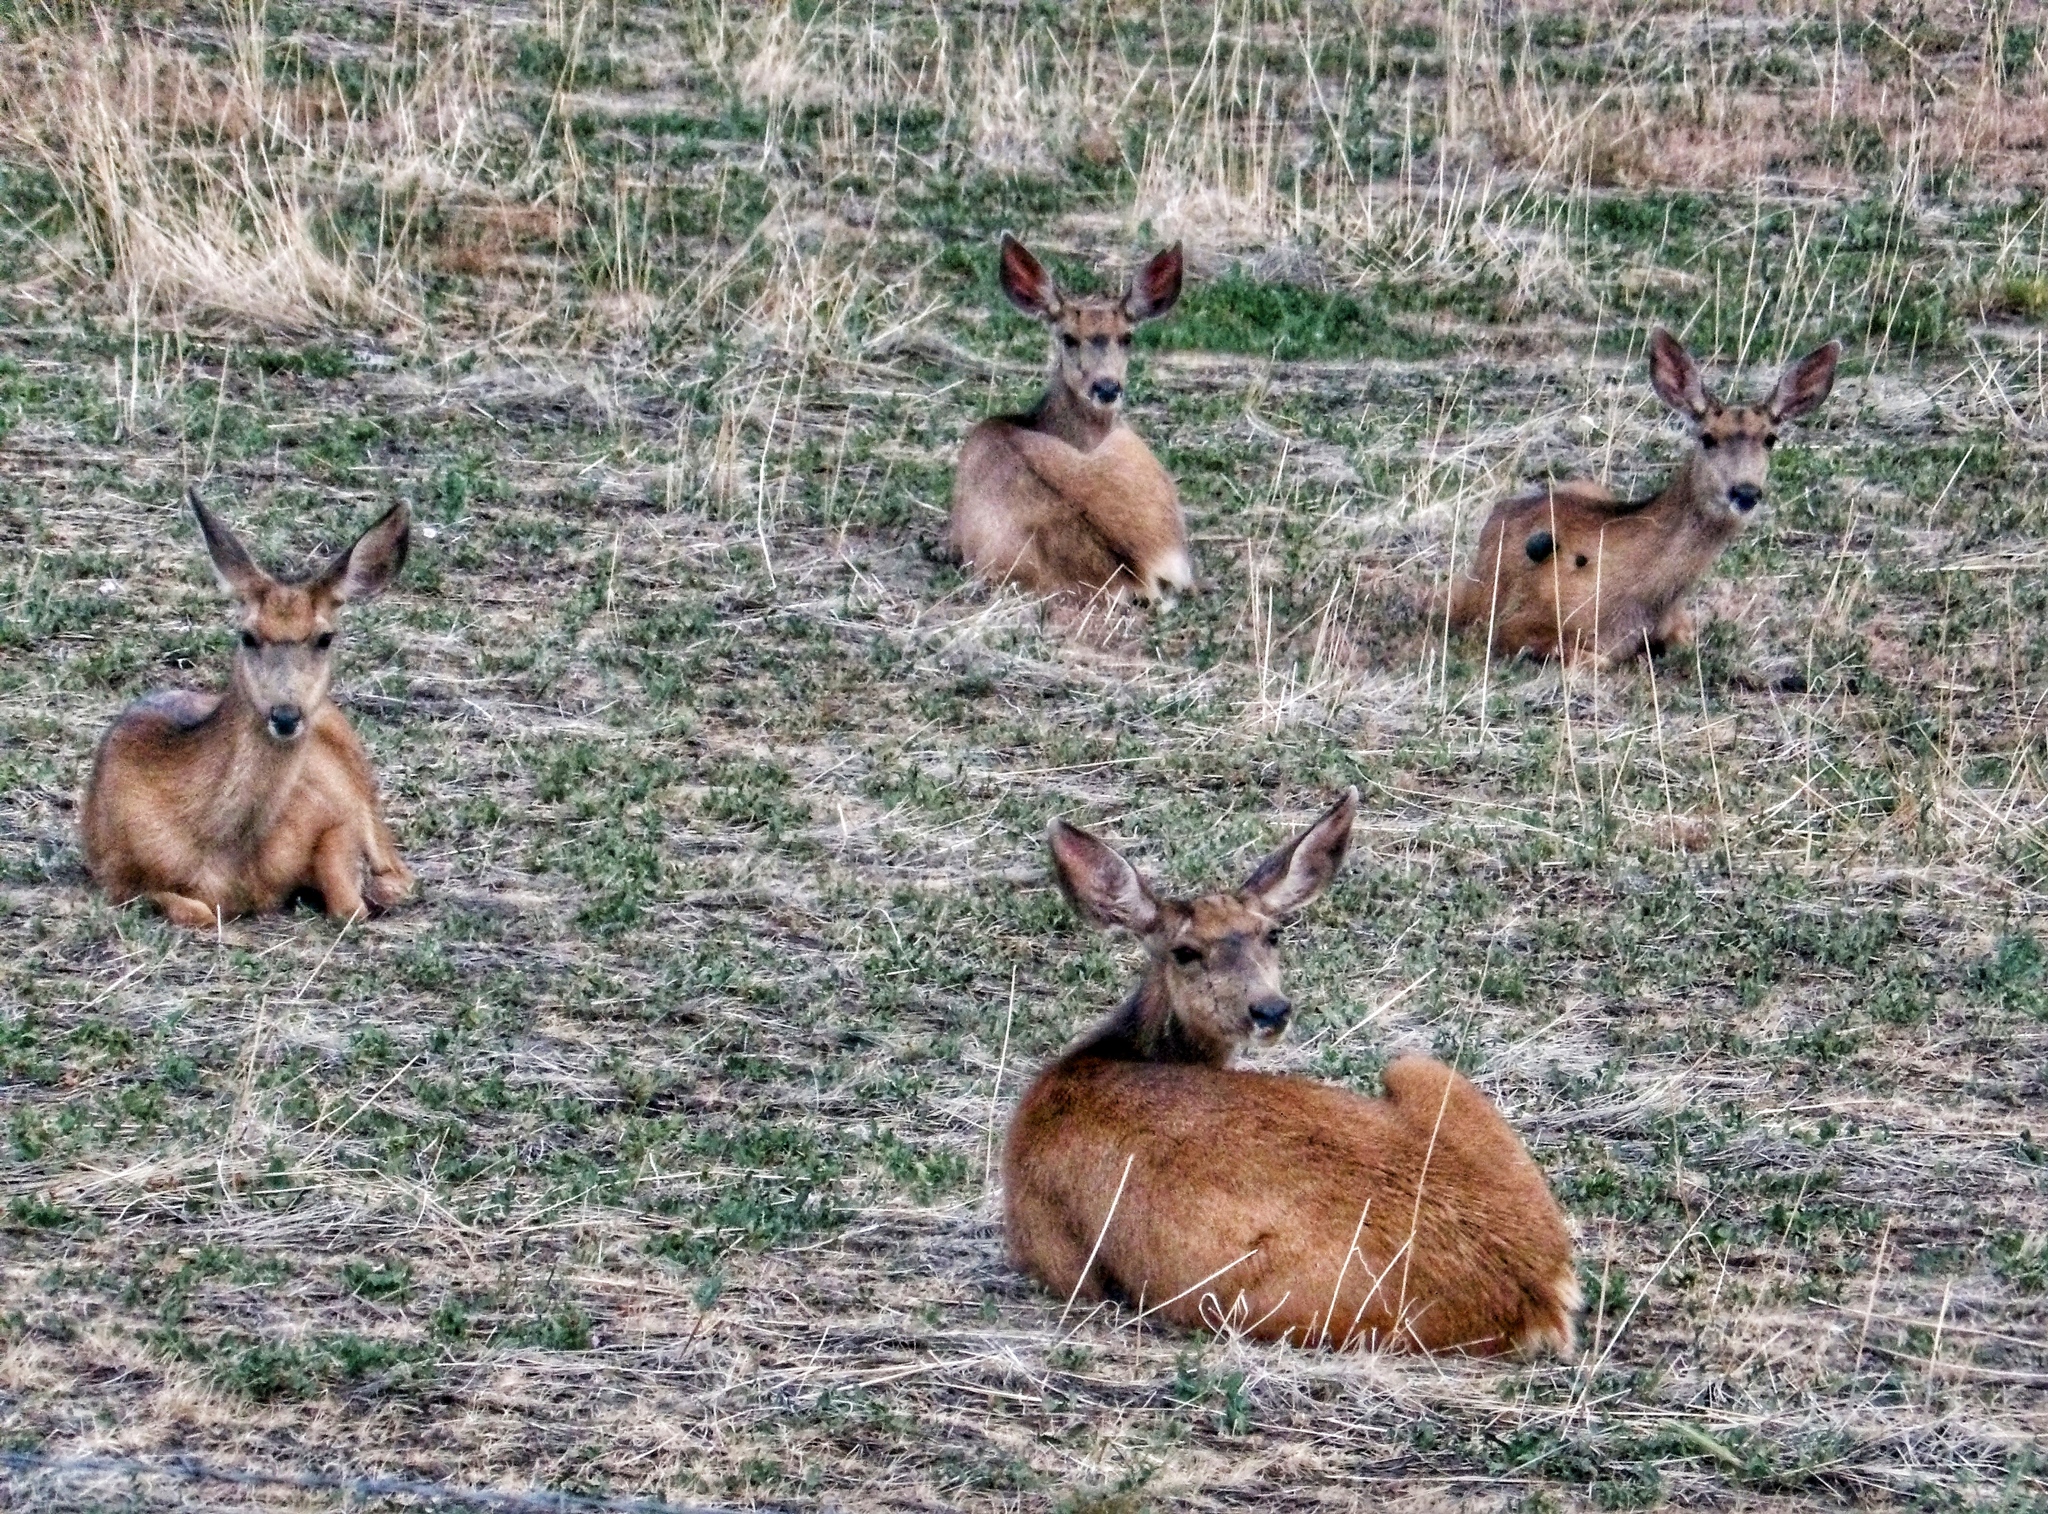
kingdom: Animalia
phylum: Chordata
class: Mammalia
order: Artiodactyla
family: Cervidae
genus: Odocoileus
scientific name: Odocoileus hemionus
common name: Mule deer
